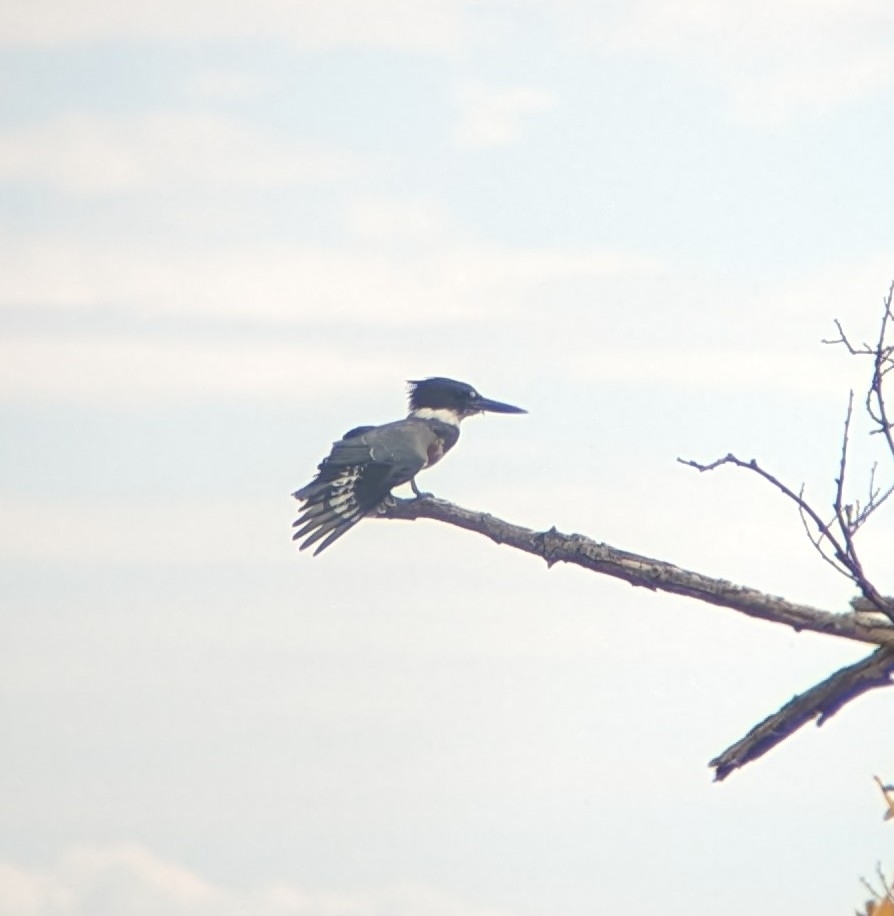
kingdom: Animalia
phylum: Chordata
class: Aves
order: Coraciiformes
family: Alcedinidae
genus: Megaceryle
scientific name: Megaceryle alcyon
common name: Belted kingfisher
